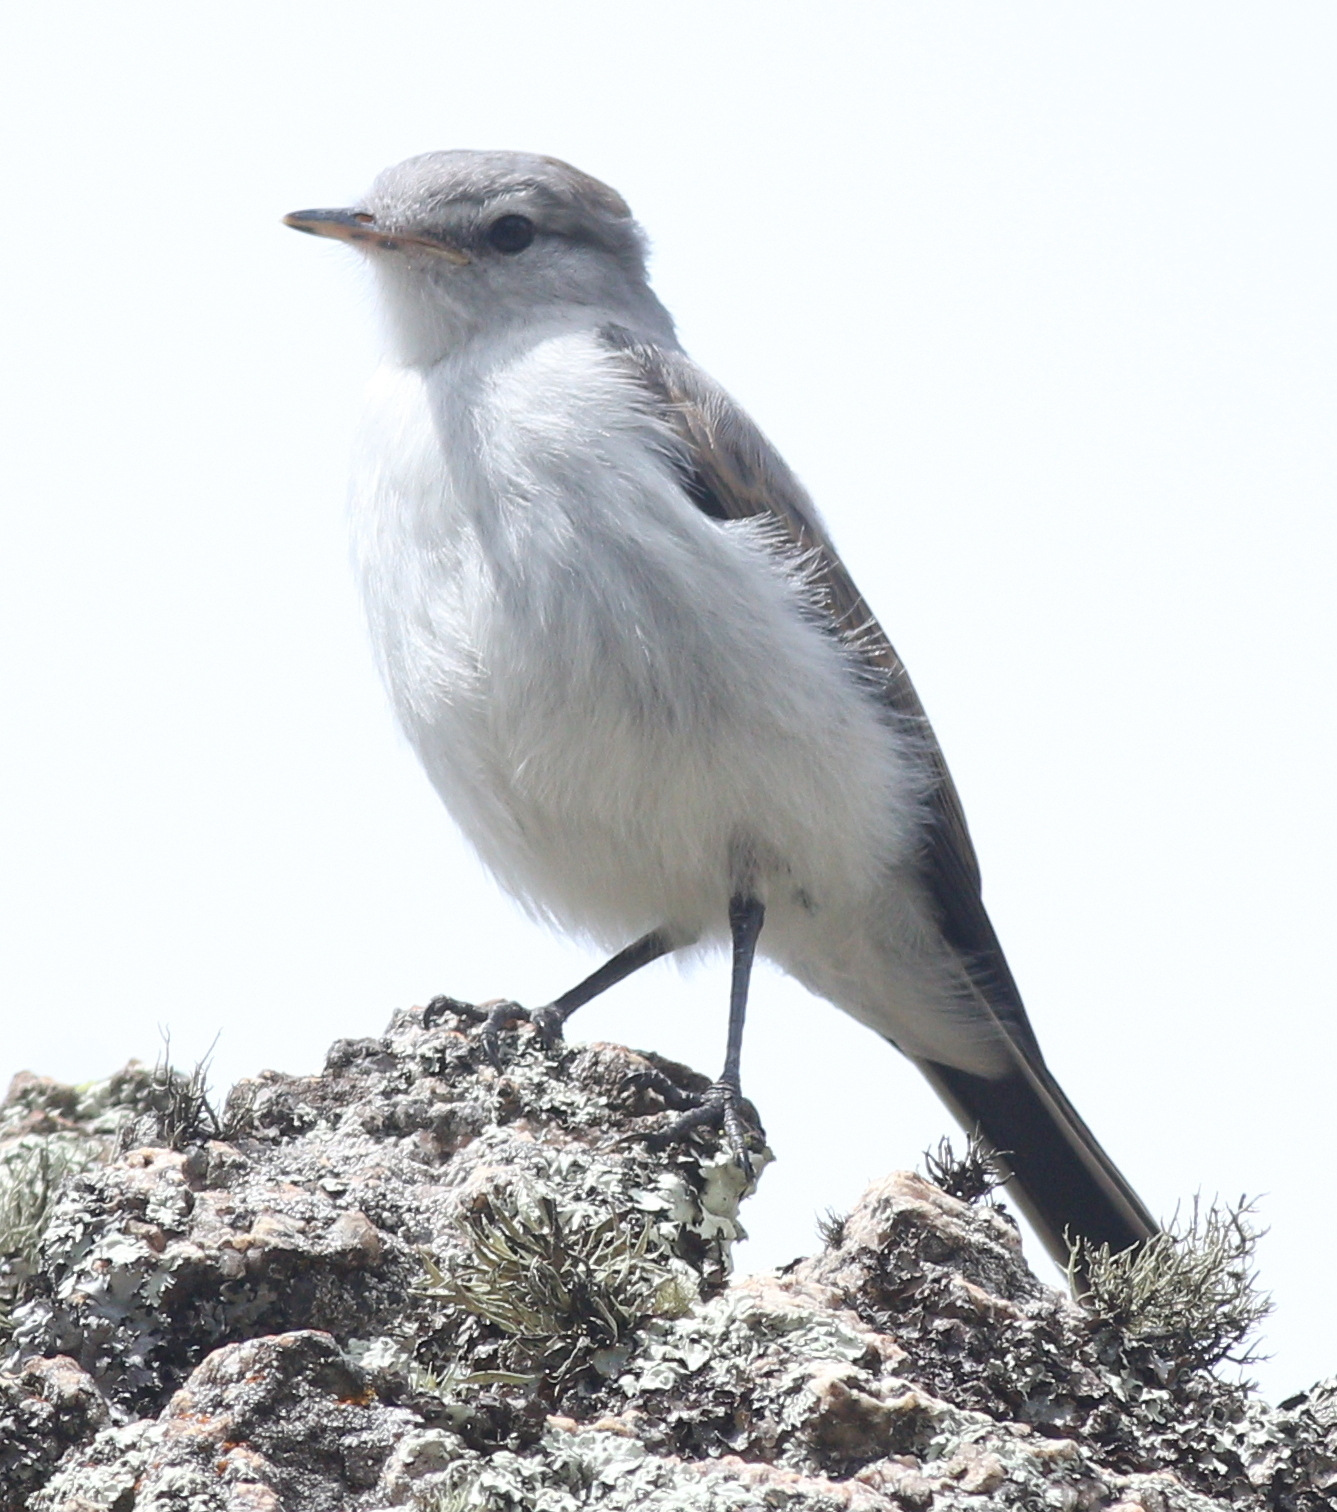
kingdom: Animalia
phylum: Chordata
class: Aves
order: Passeriformes
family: Tyrannidae
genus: Muscisaxicola
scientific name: Muscisaxicola maculirostris
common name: Spot-billed ground tyrant
